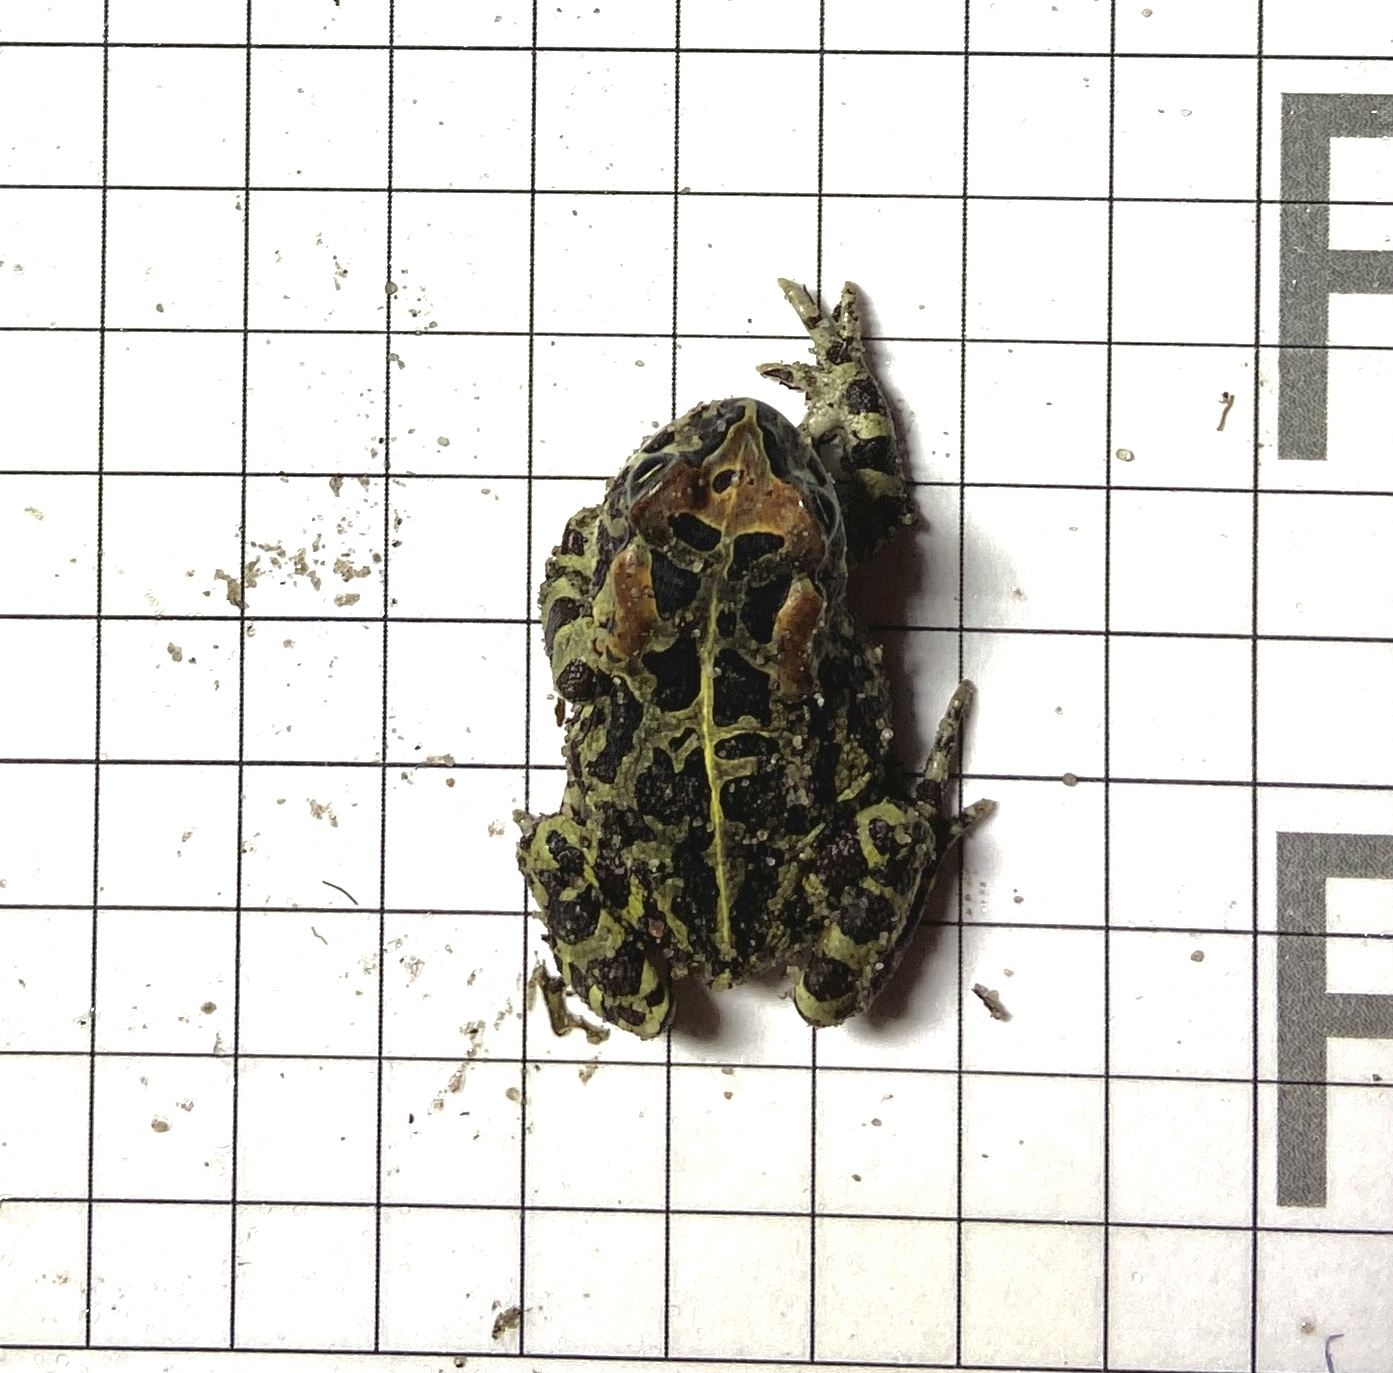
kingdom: Animalia
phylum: Chordata
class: Amphibia
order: Anura
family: Bufonidae
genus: Sclerophrys
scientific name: Sclerophrys pantherina
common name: Panther toad
